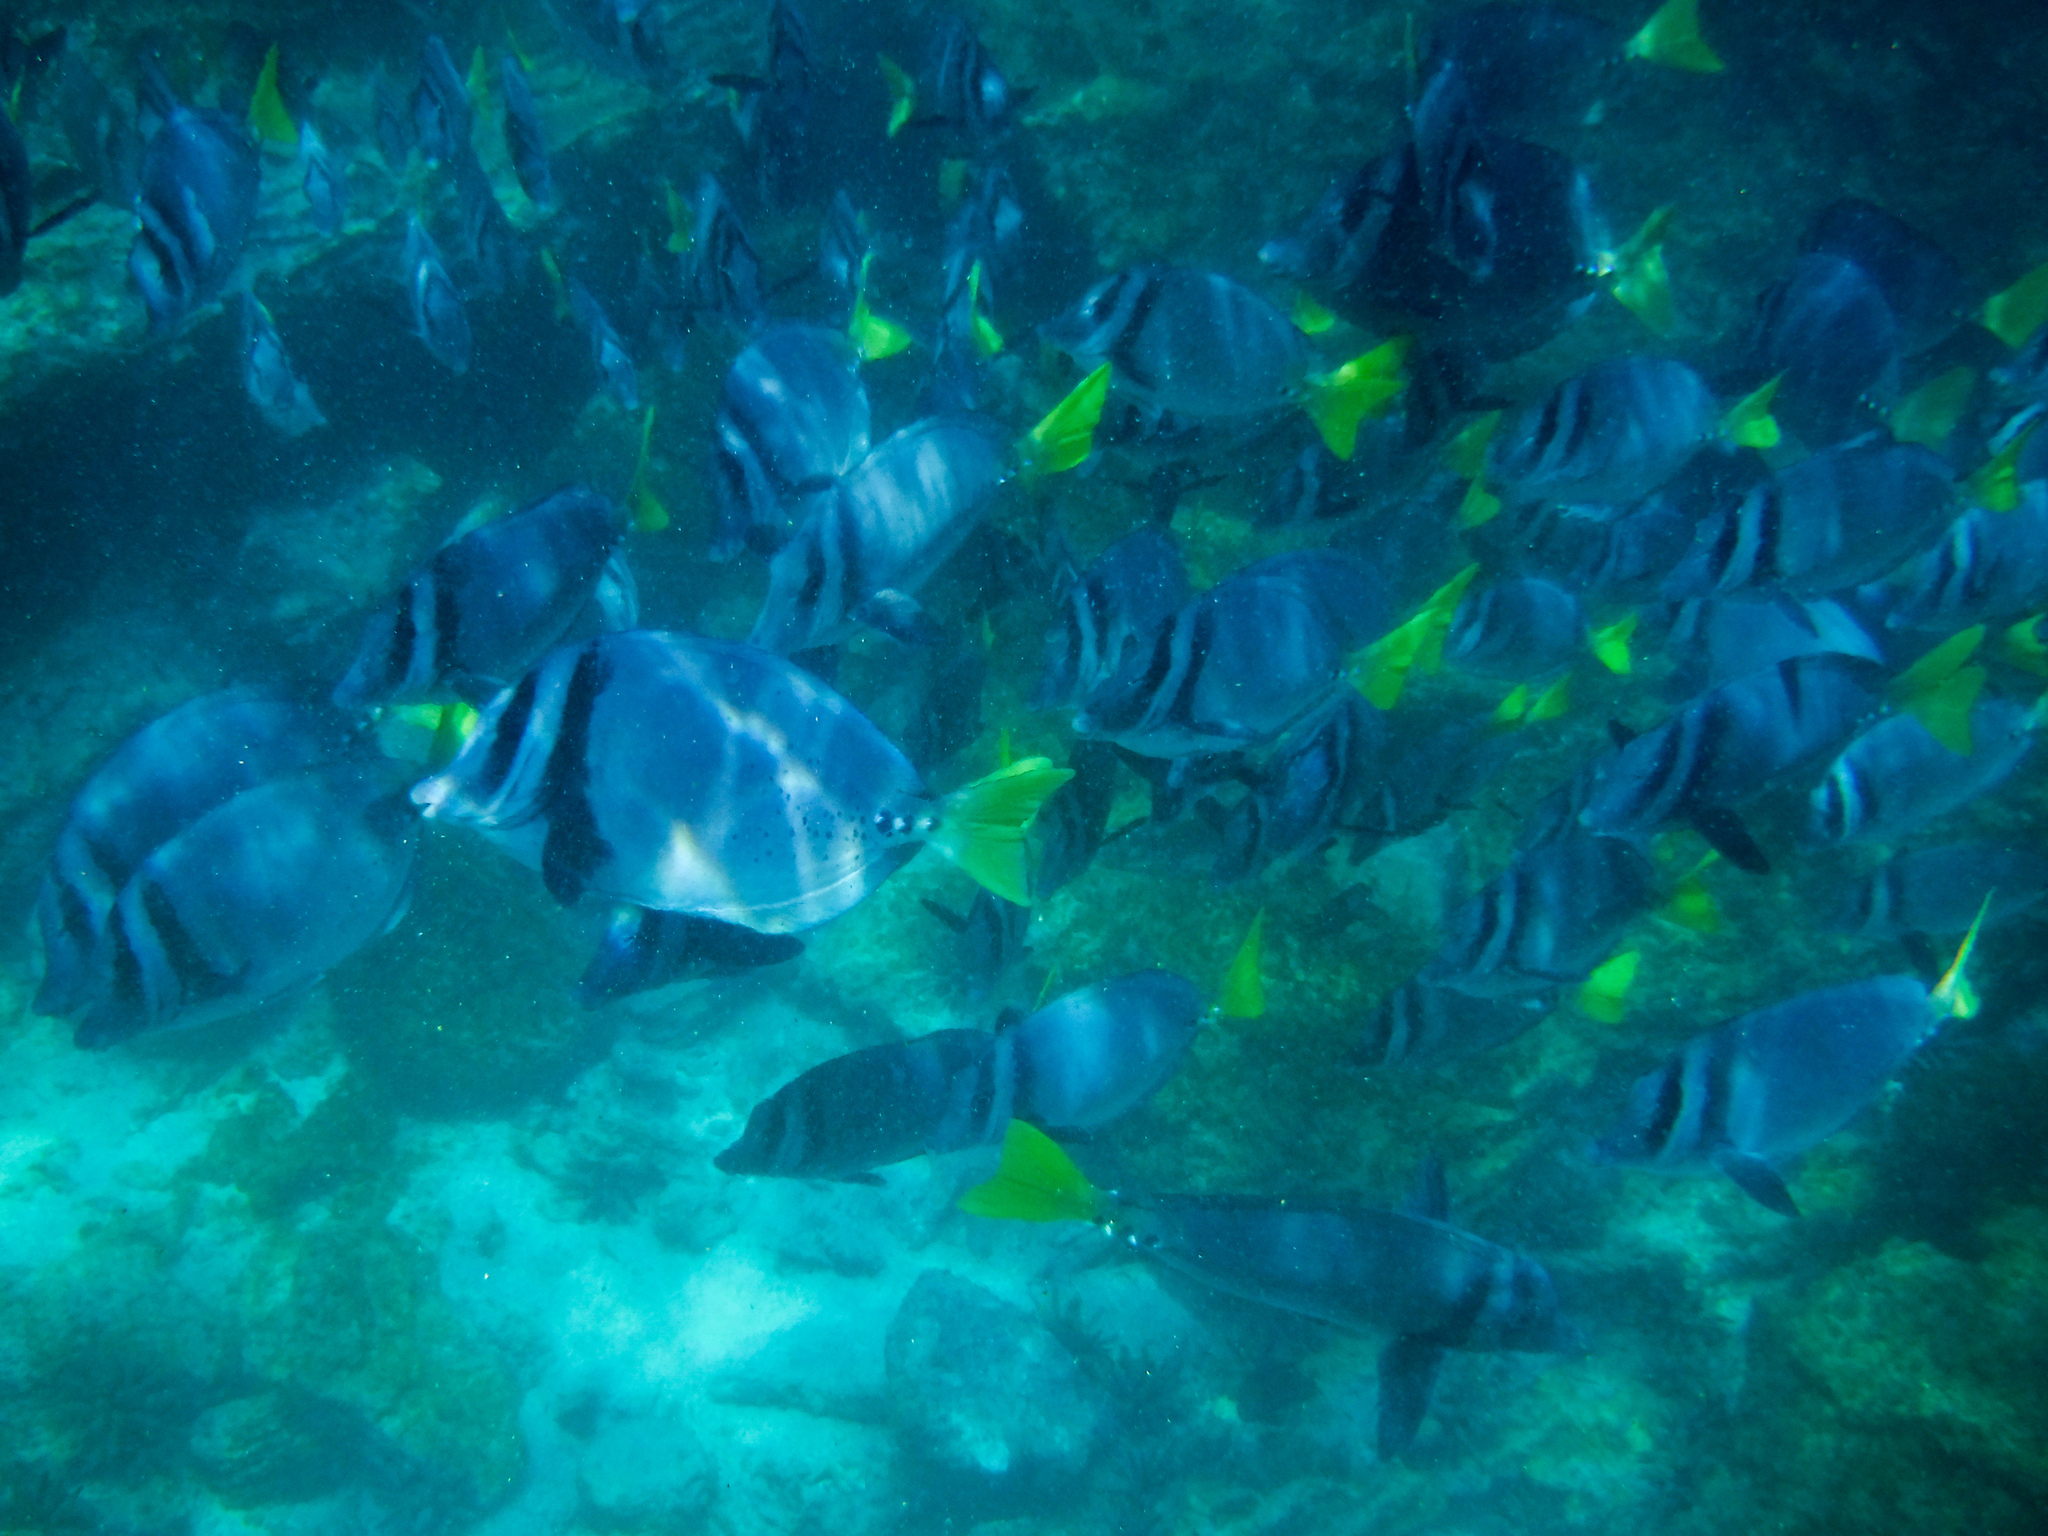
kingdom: Animalia
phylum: Chordata
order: Perciformes
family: Acanthuridae
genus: Prionurus
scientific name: Prionurus laticlavius
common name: Razor surgeonfish
